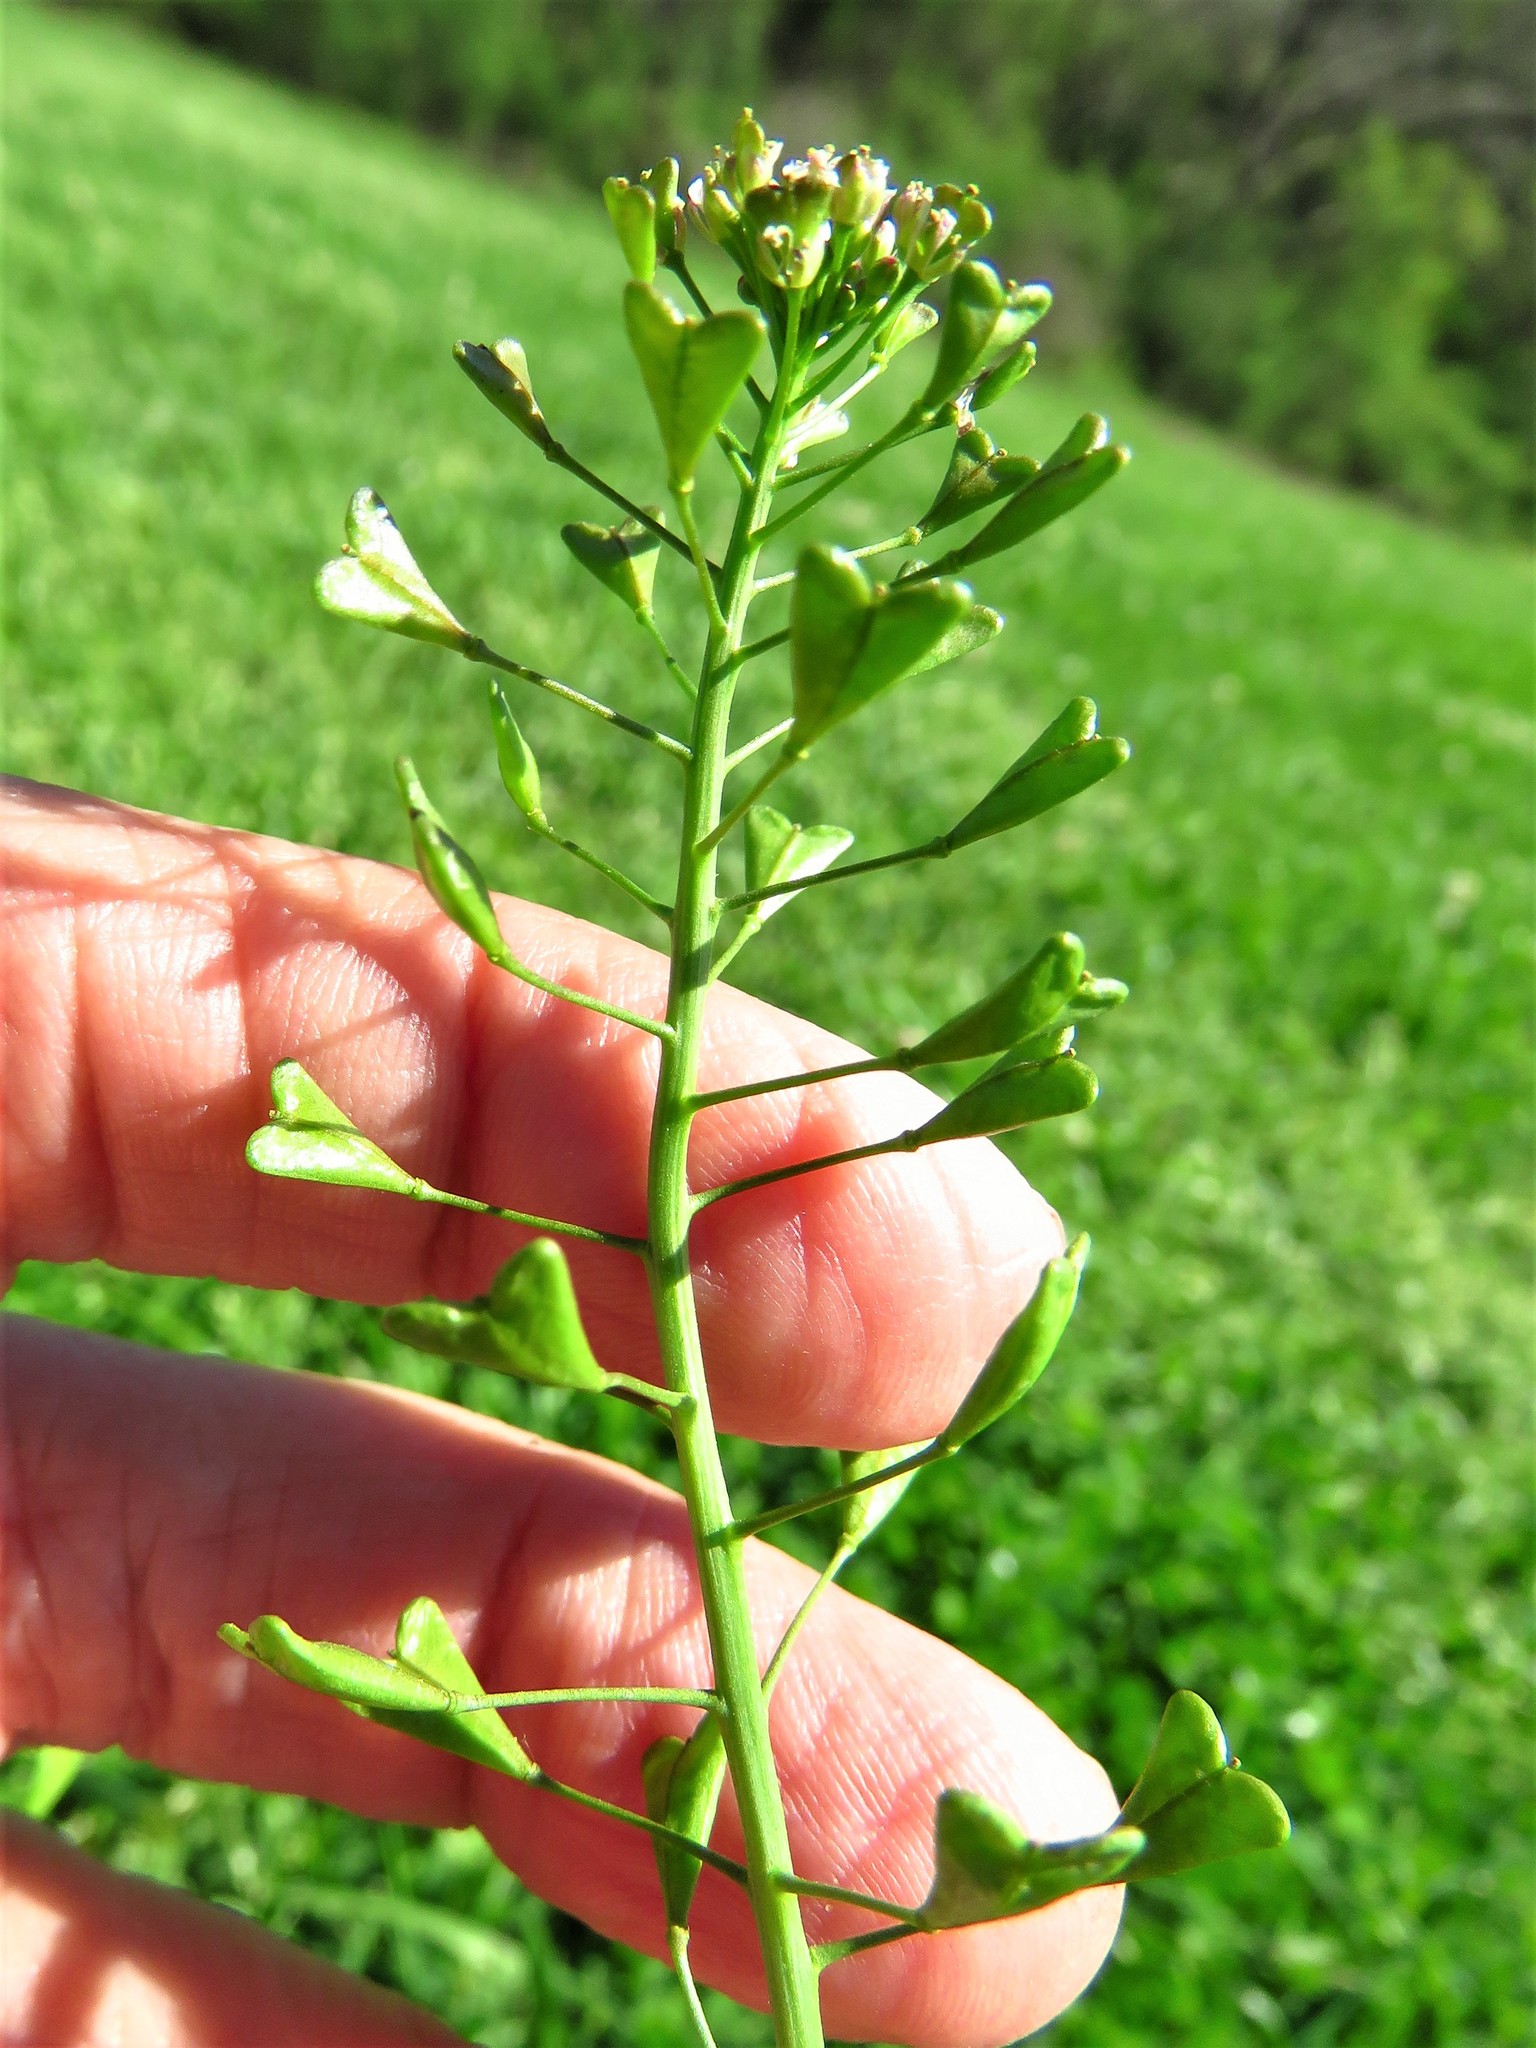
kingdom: Plantae
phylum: Tracheophyta
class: Magnoliopsida
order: Brassicales
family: Brassicaceae
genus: Capsella
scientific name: Capsella bursa-pastoris
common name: Shepherd's purse
